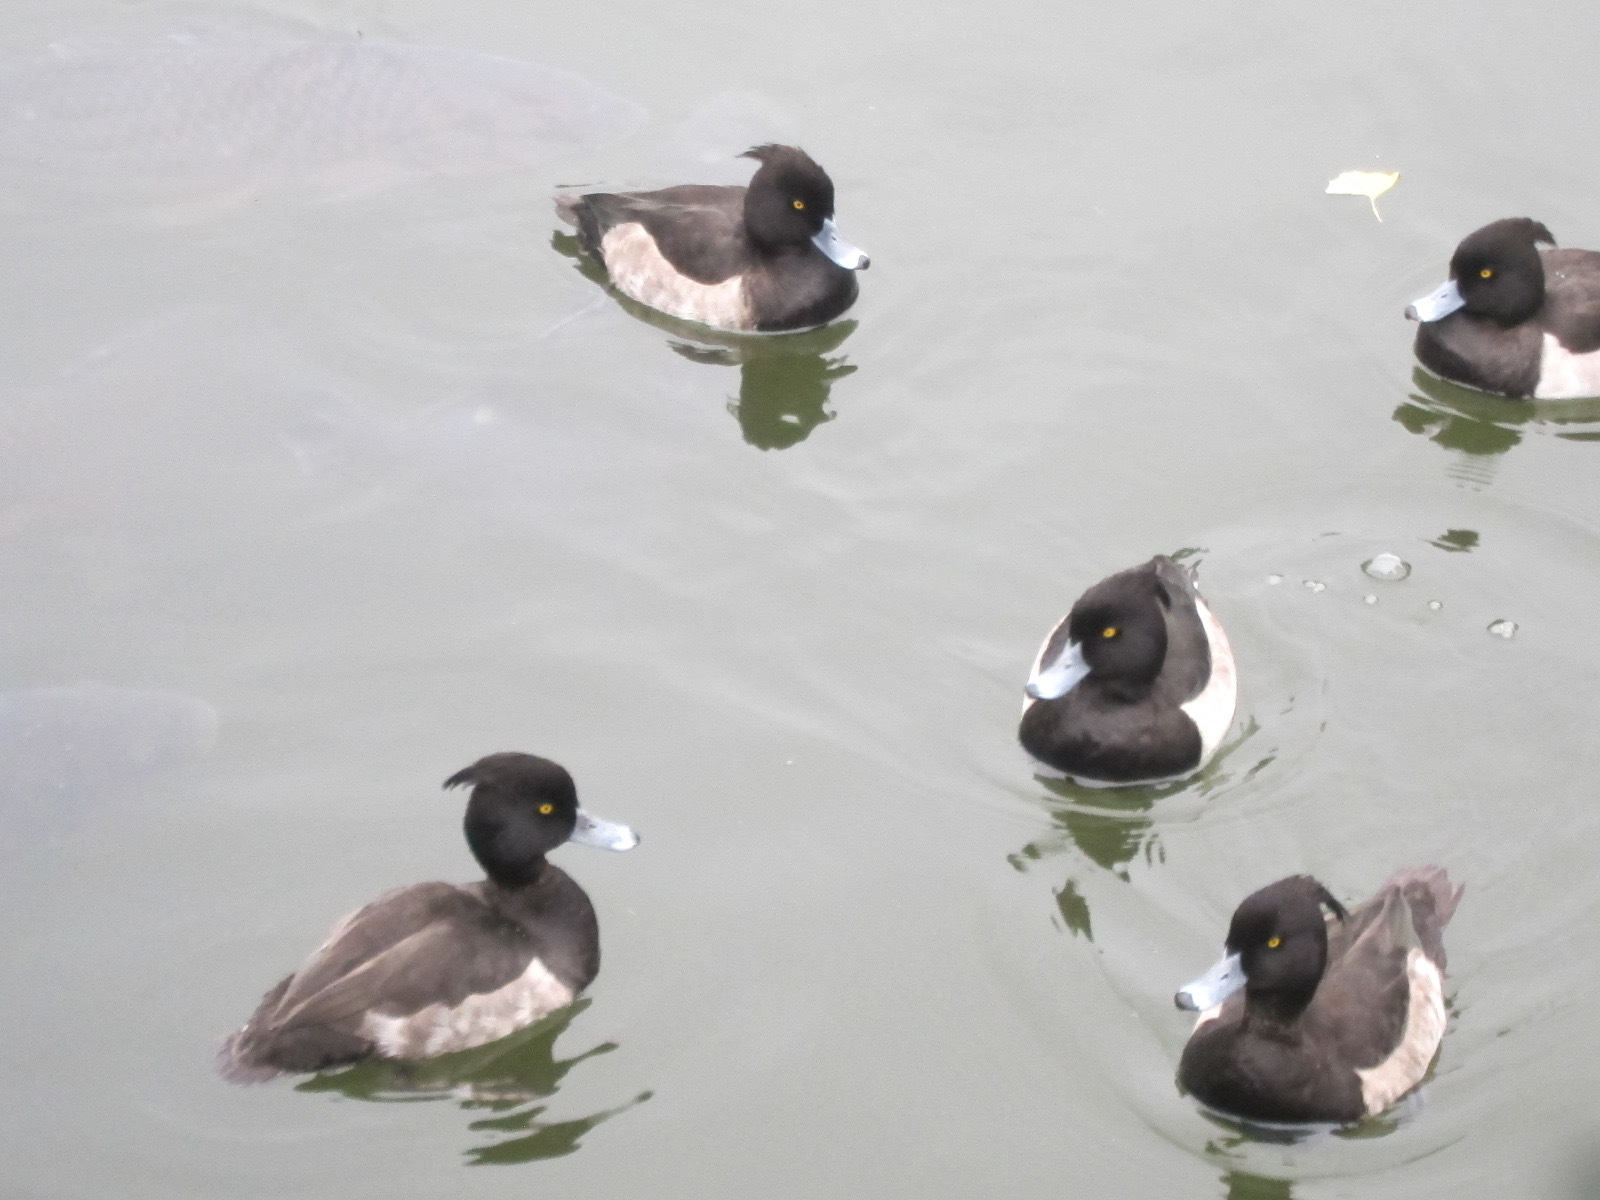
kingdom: Animalia
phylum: Chordata
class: Aves
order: Anseriformes
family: Anatidae
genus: Aythya
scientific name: Aythya fuligula
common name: Tufted duck
